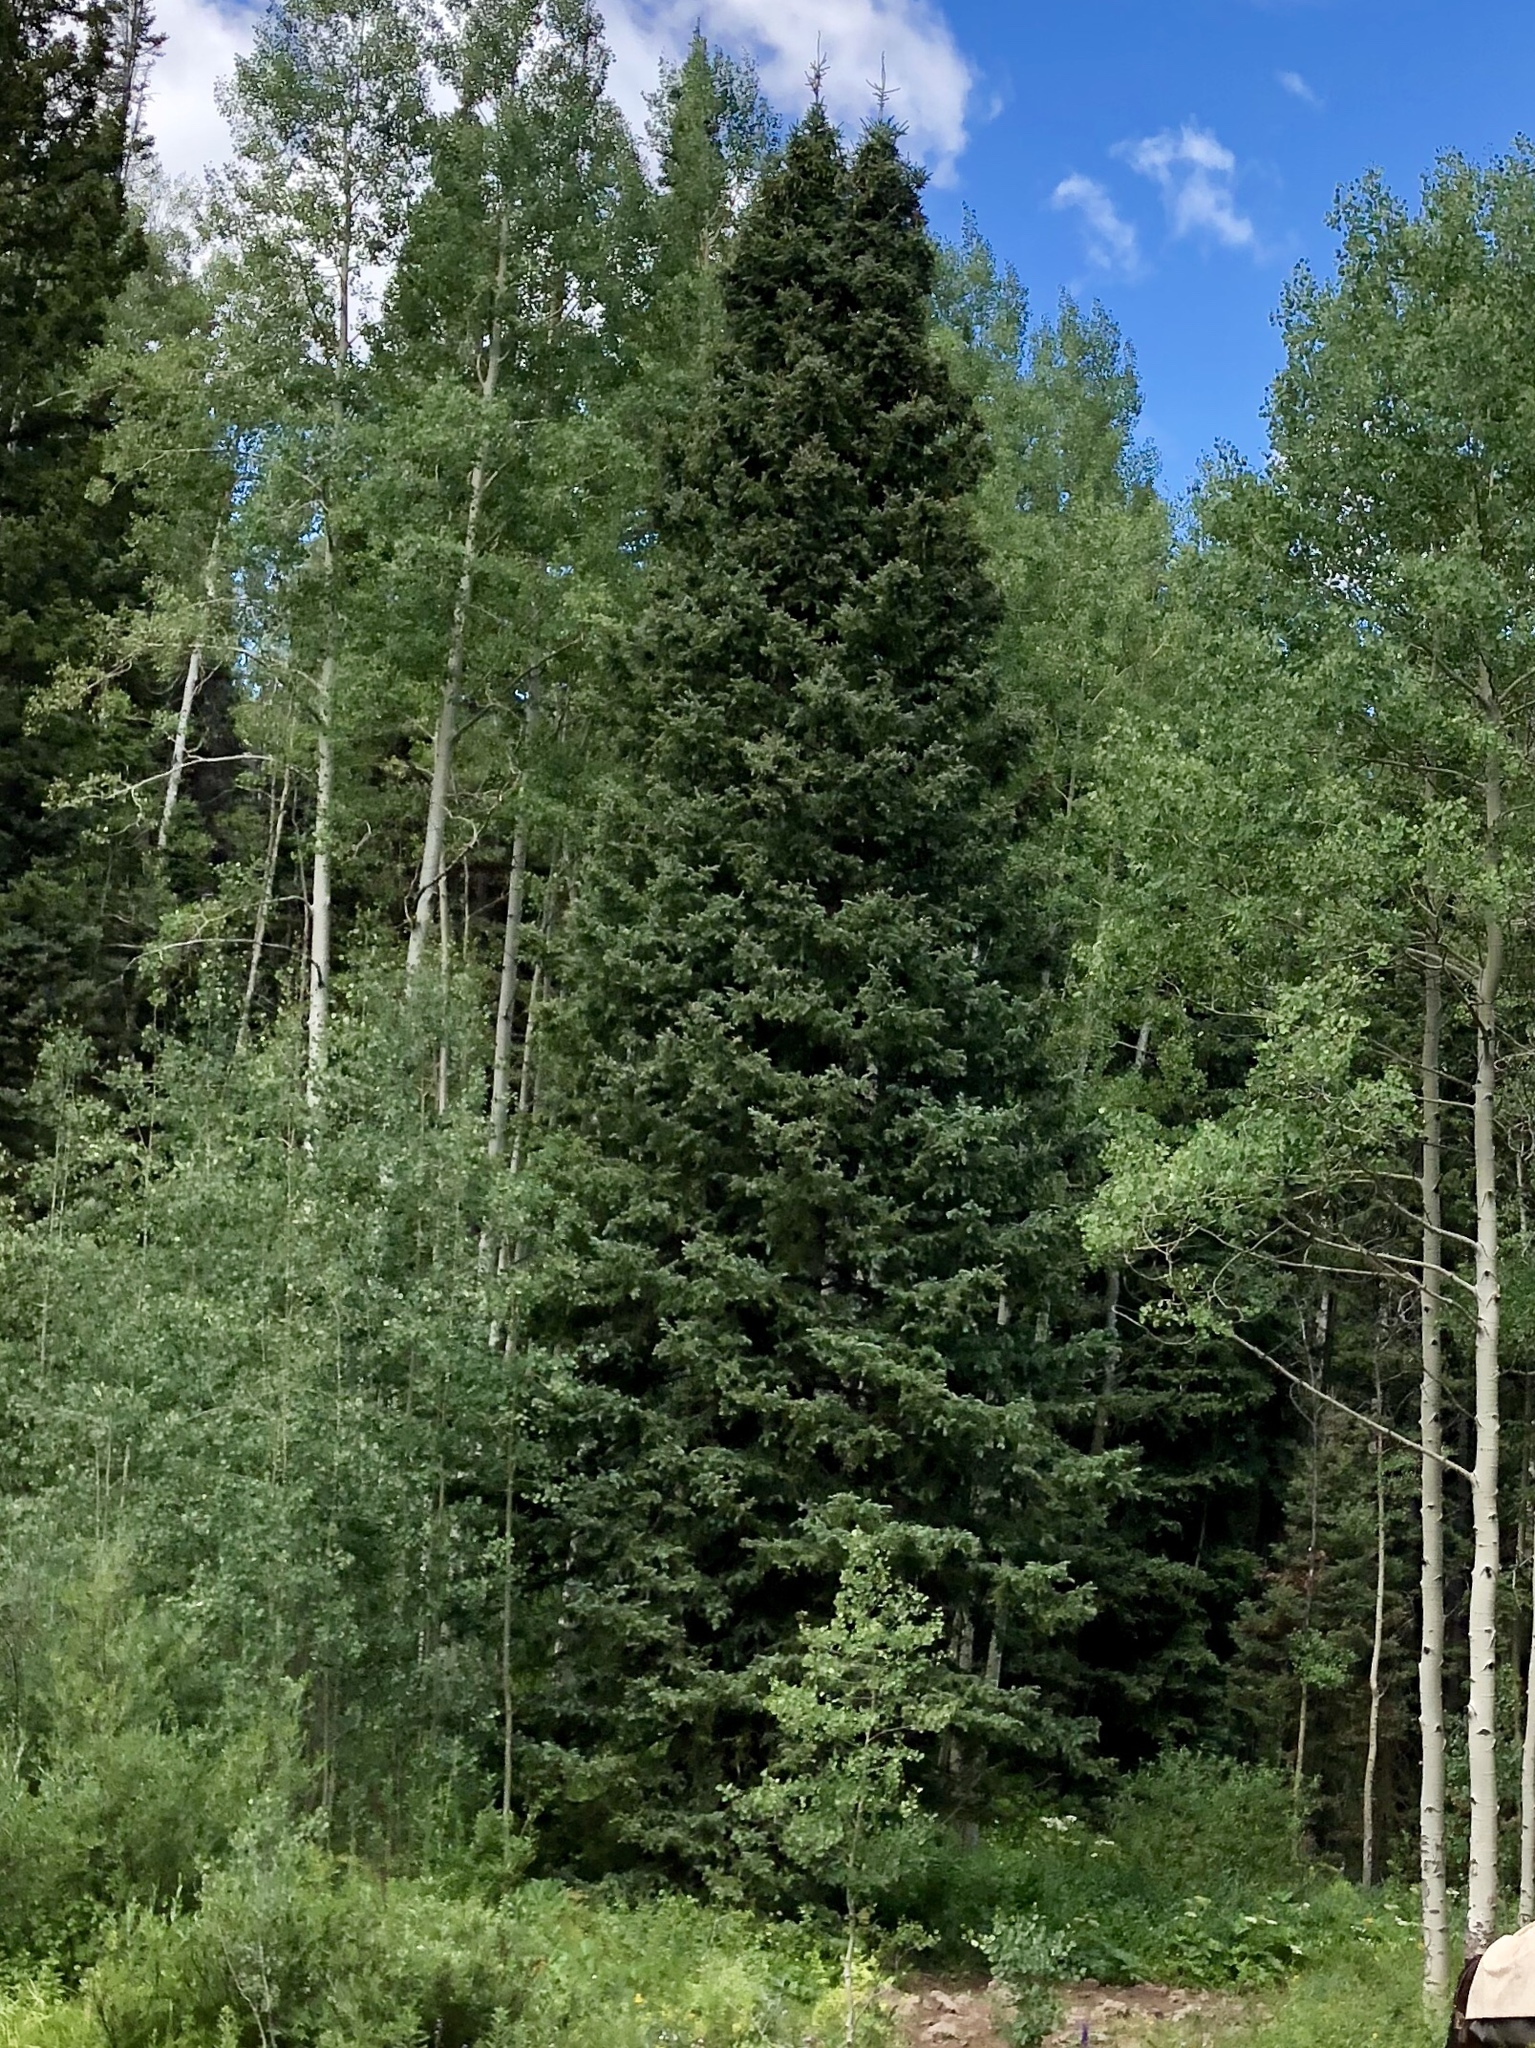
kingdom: Plantae
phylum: Tracheophyta
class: Pinopsida
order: Pinales
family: Pinaceae
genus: Picea
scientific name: Picea pungens
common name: Colorado spruce
